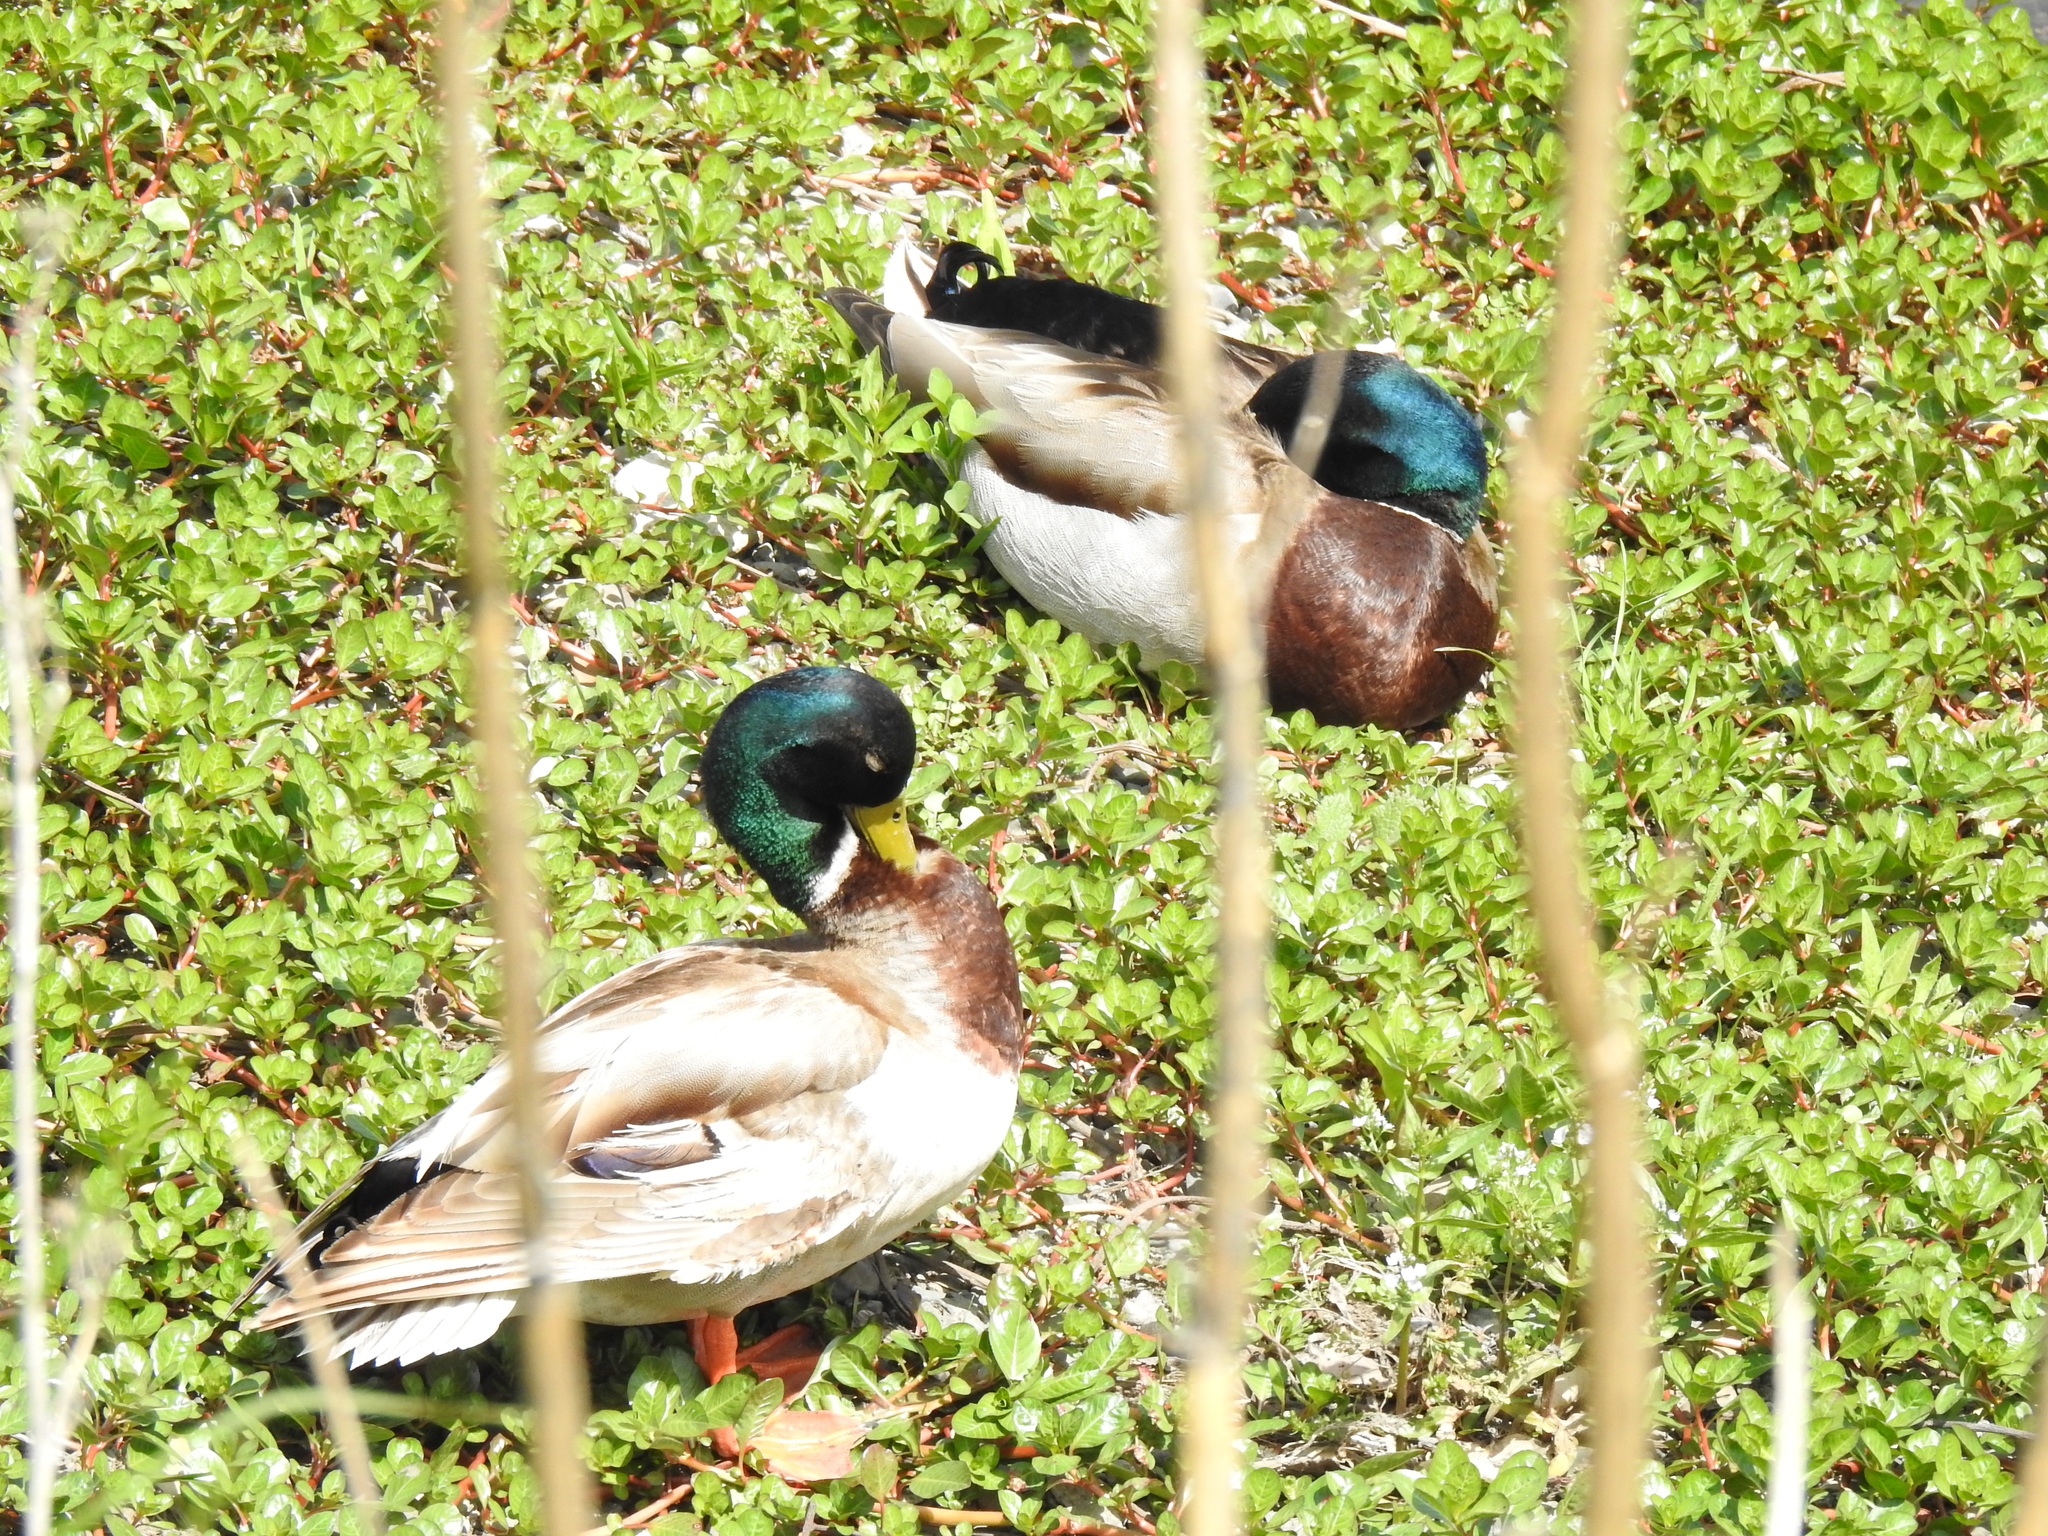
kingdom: Animalia
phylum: Chordata
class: Aves
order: Anseriformes
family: Anatidae
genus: Anas
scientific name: Anas platyrhynchos
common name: Mallard
